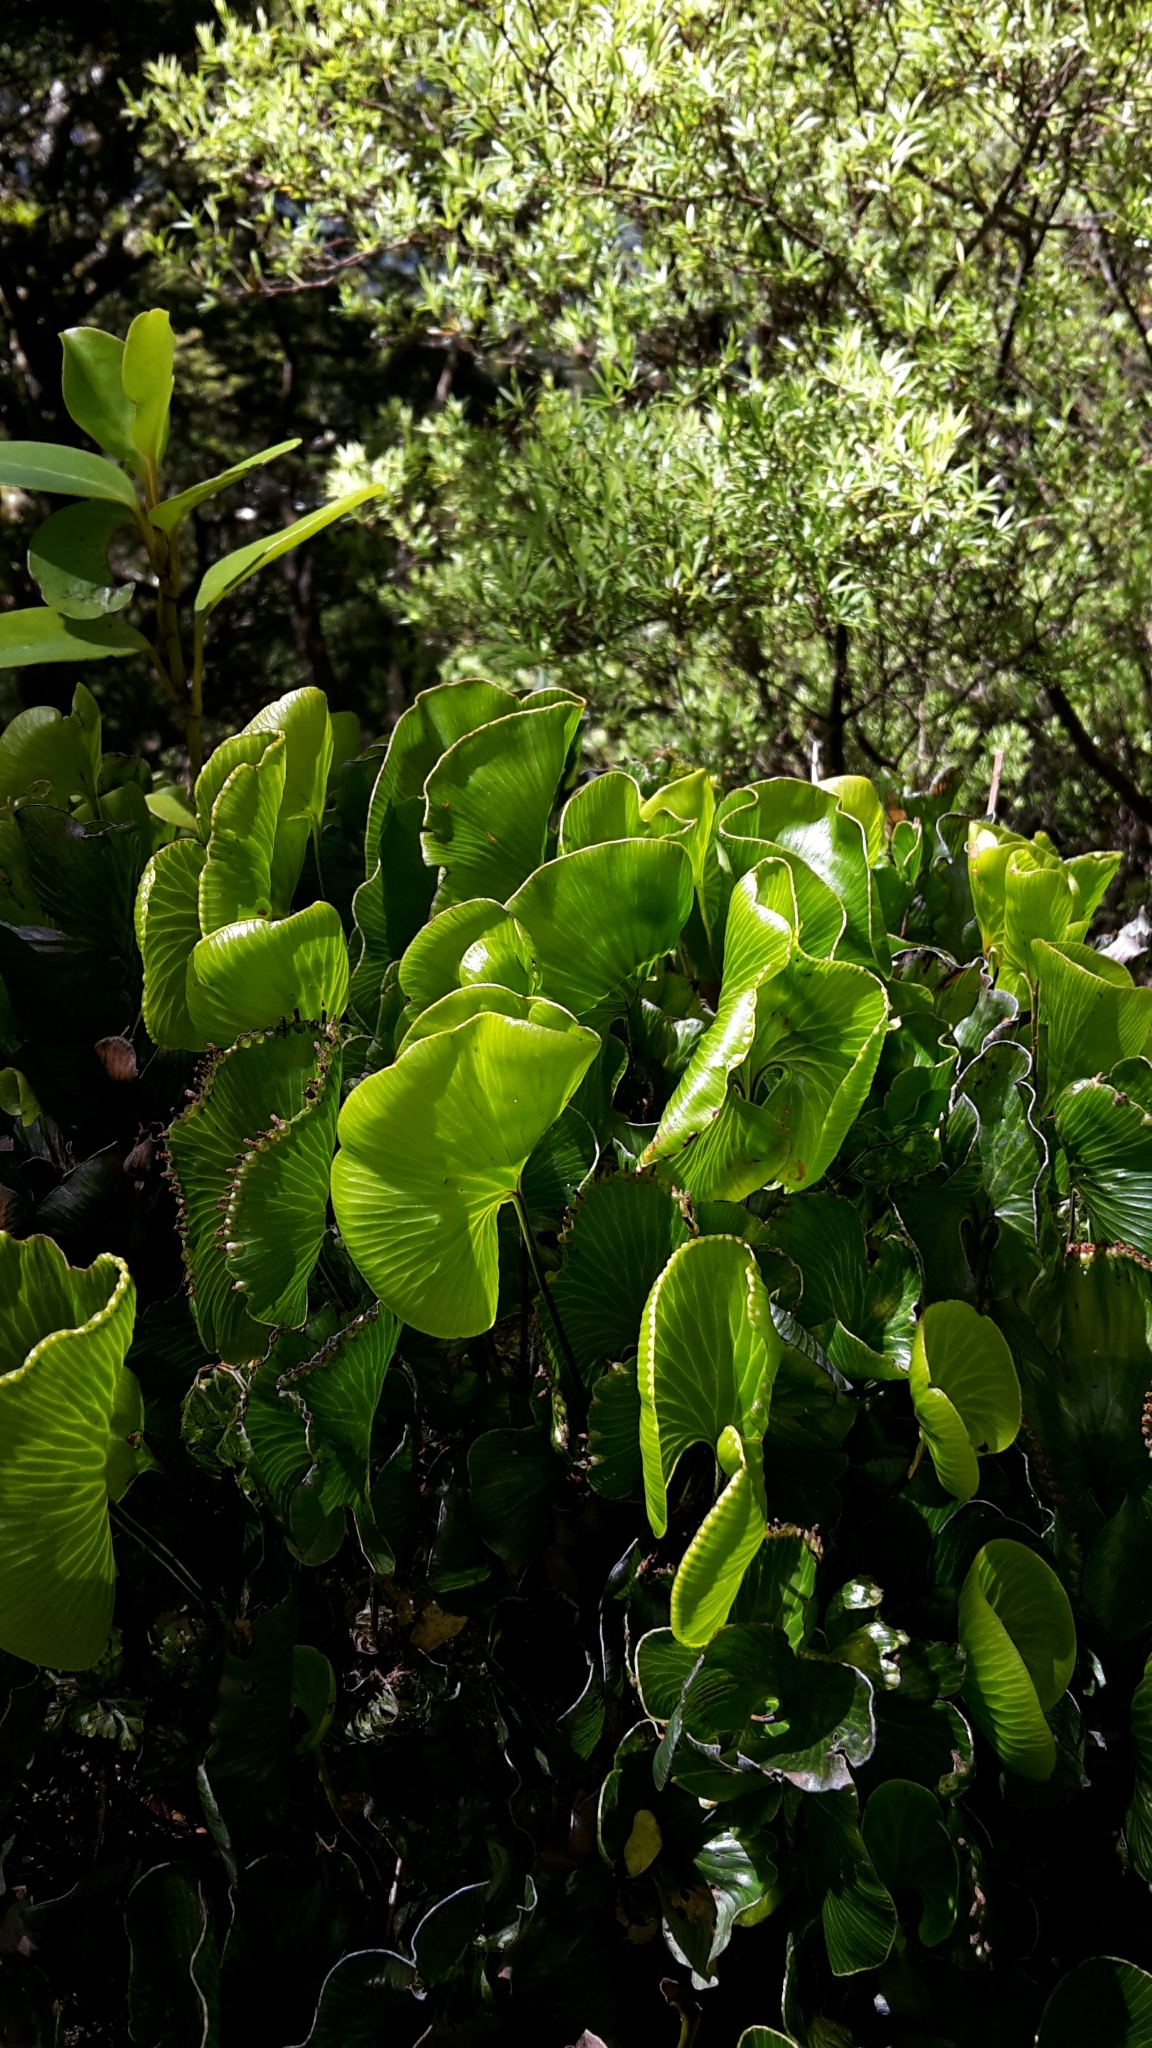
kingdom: Plantae
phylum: Tracheophyta
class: Polypodiopsida
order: Hymenophyllales
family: Hymenophyllaceae
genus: Hymenophyllum
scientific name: Hymenophyllum nephrophyllum
